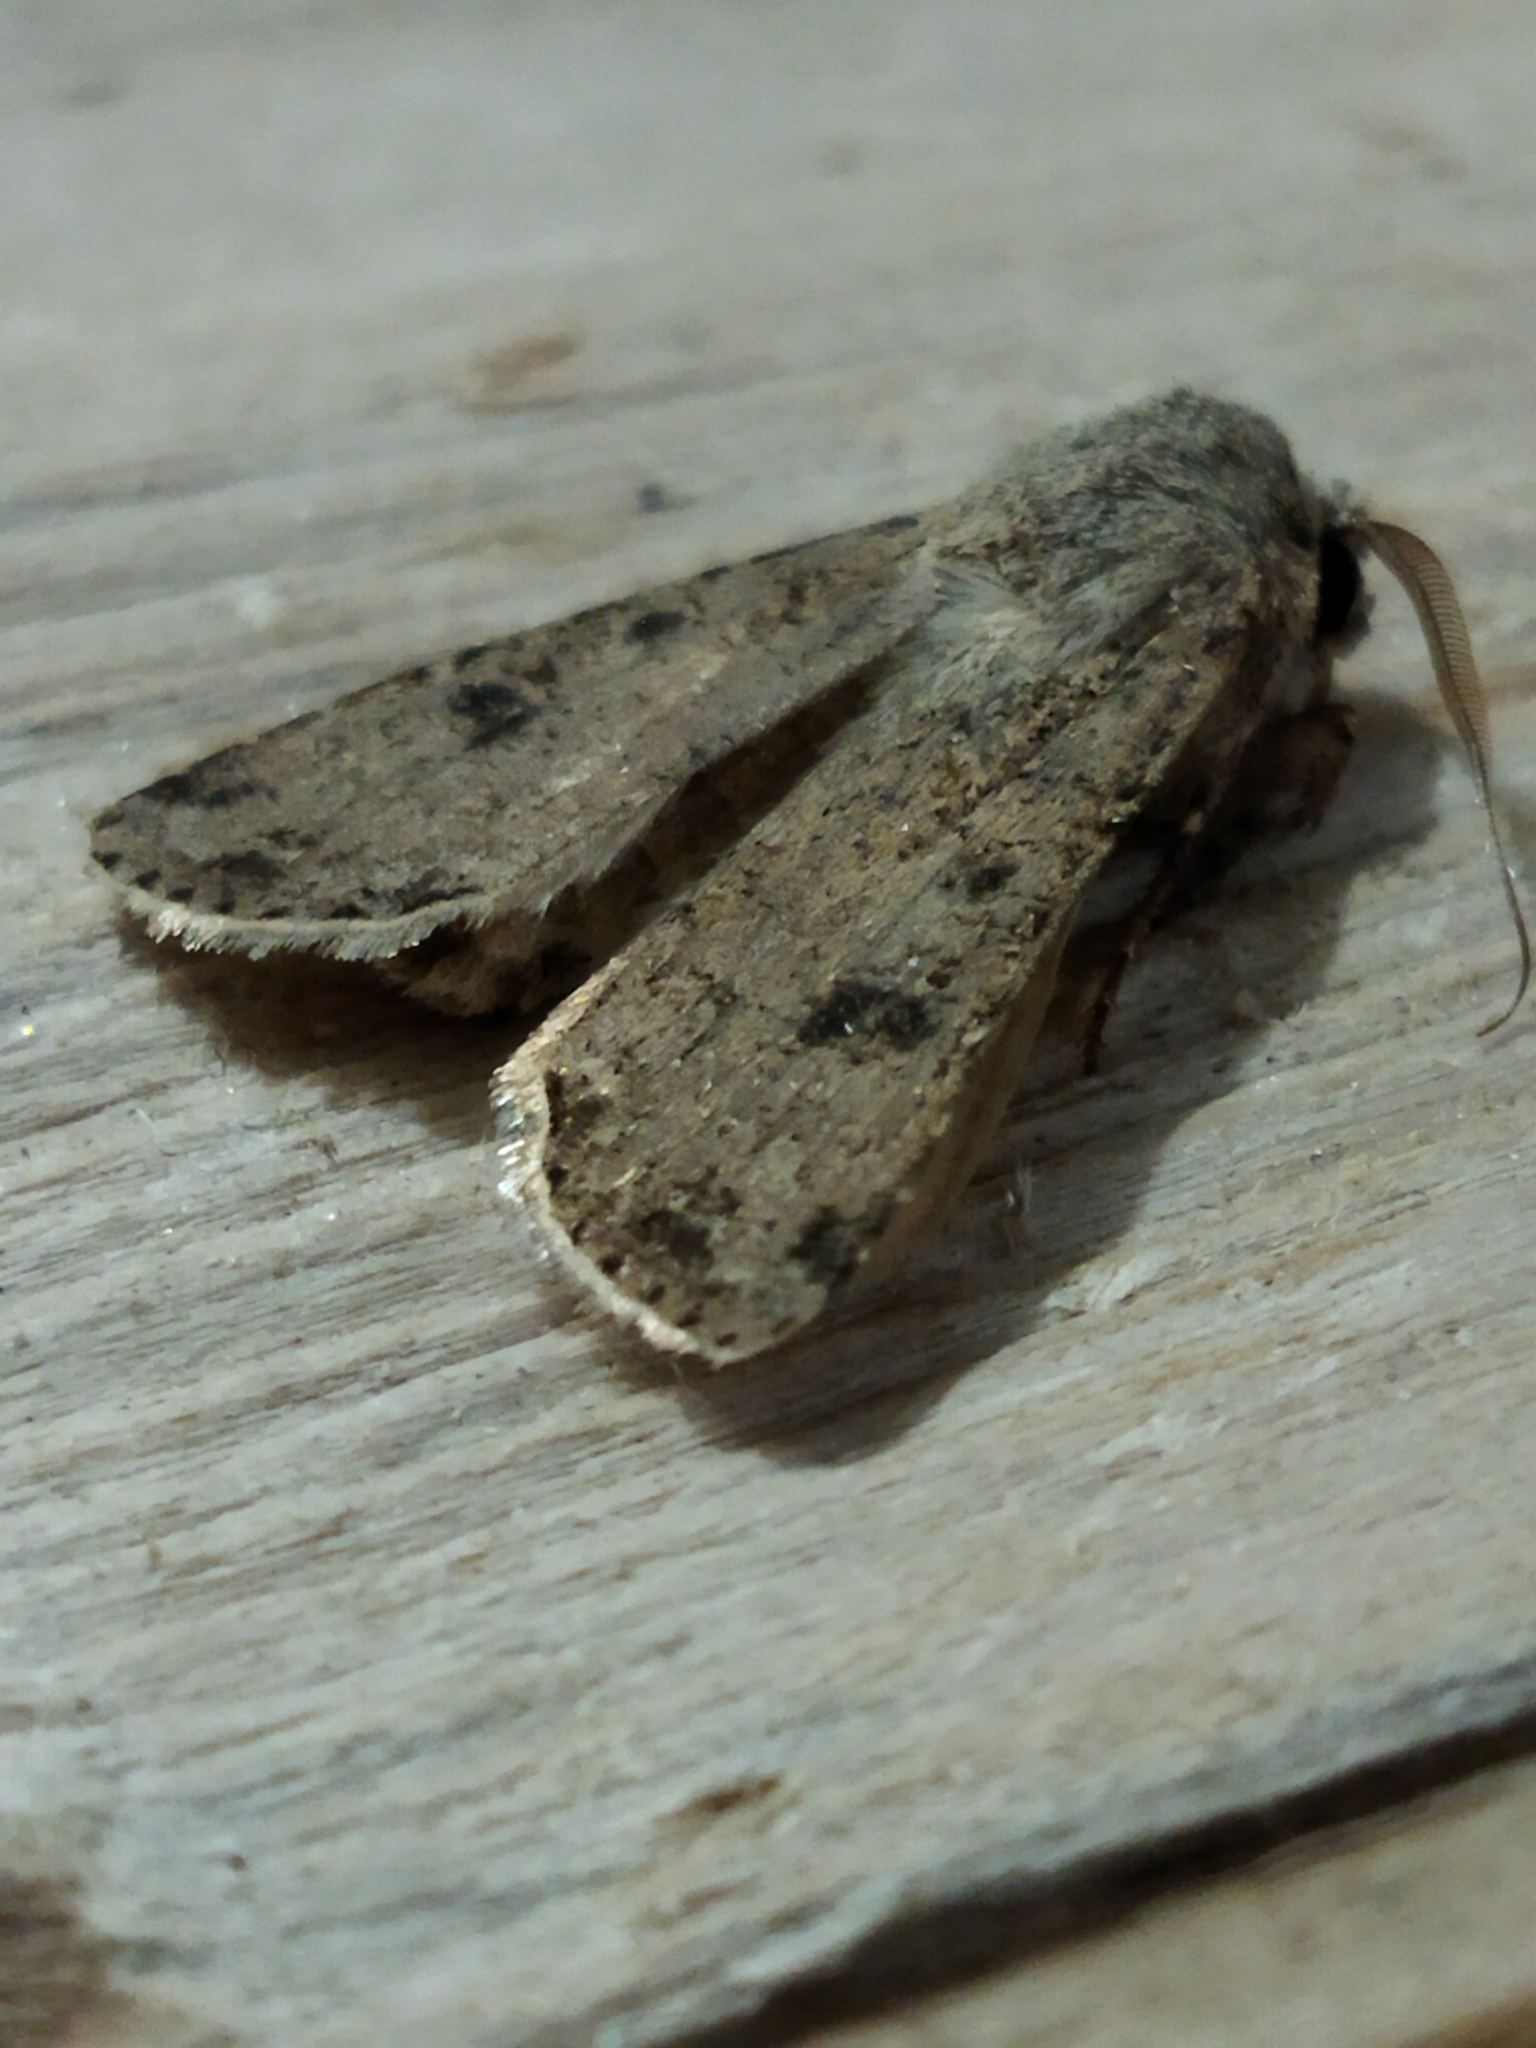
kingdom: Animalia
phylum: Arthropoda
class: Insecta
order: Lepidoptera
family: Noctuidae
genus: Agrotis
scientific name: Agrotis segetum
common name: Turnip moth
